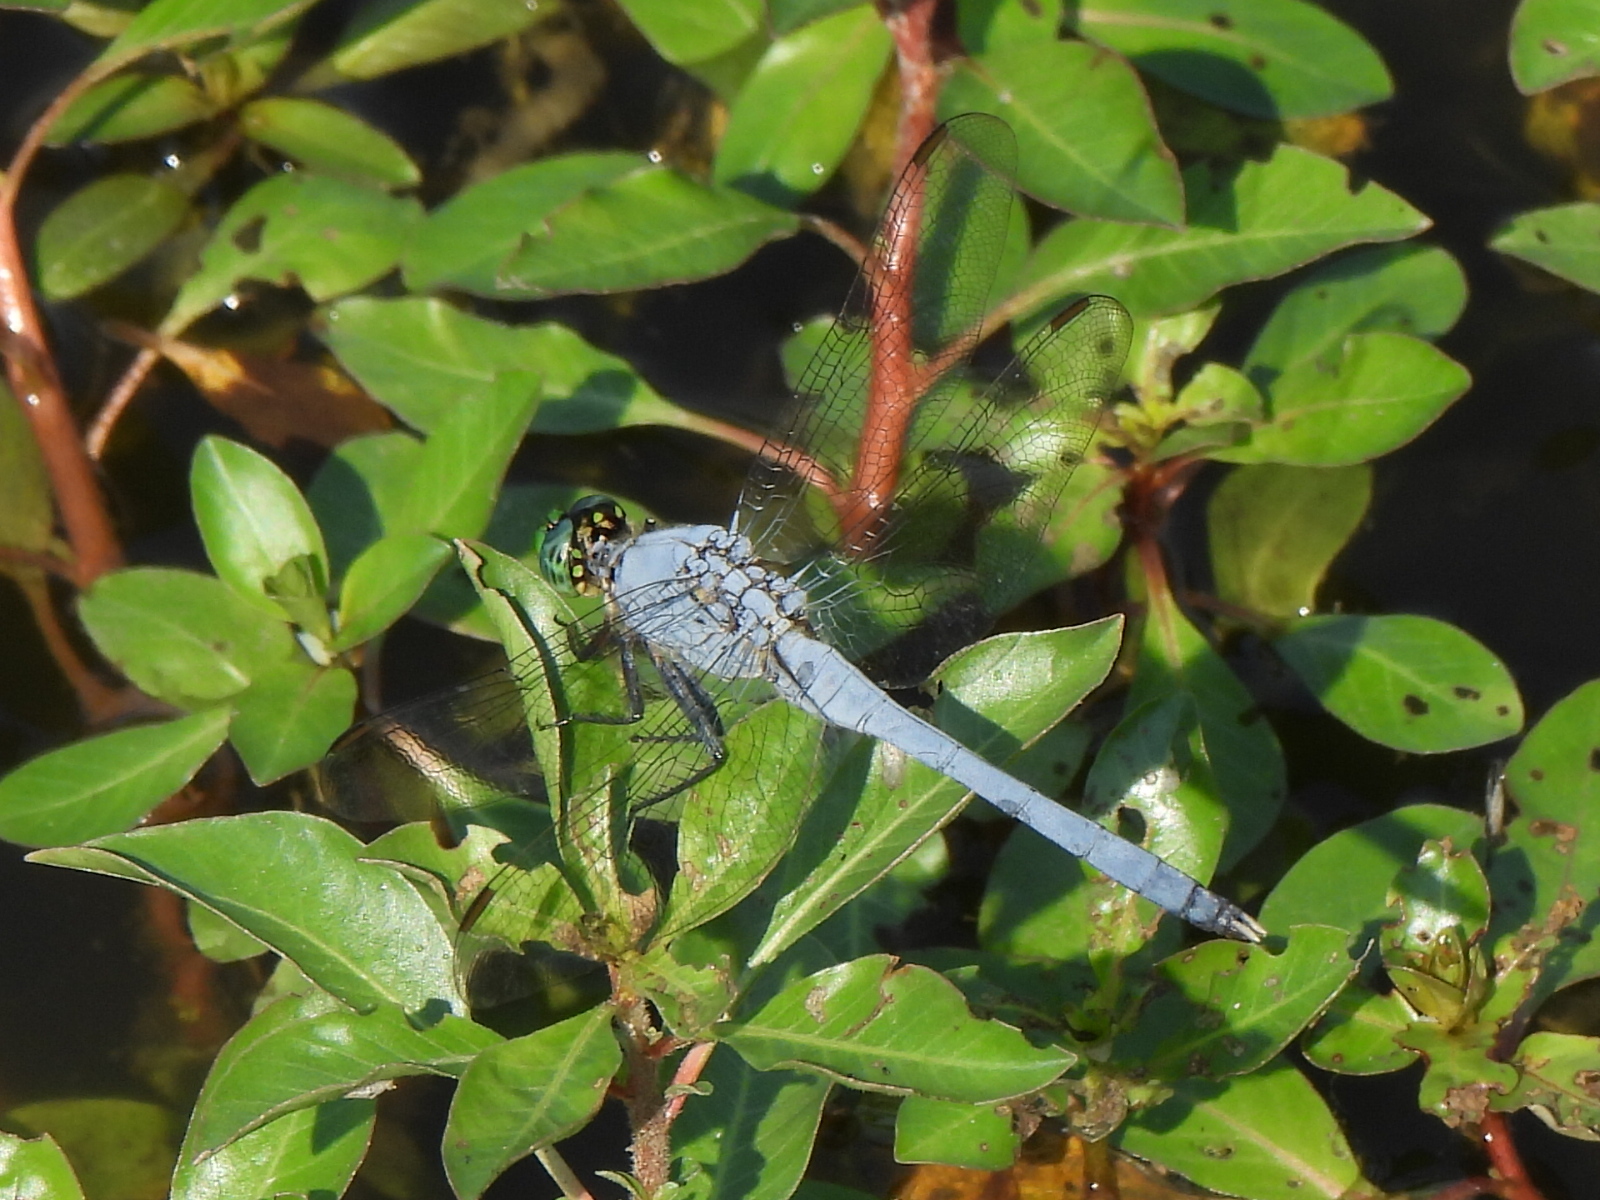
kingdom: Animalia
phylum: Arthropoda
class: Insecta
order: Odonata
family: Libellulidae
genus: Erythemis
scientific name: Erythemis simplicicollis
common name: Eastern pondhawk
